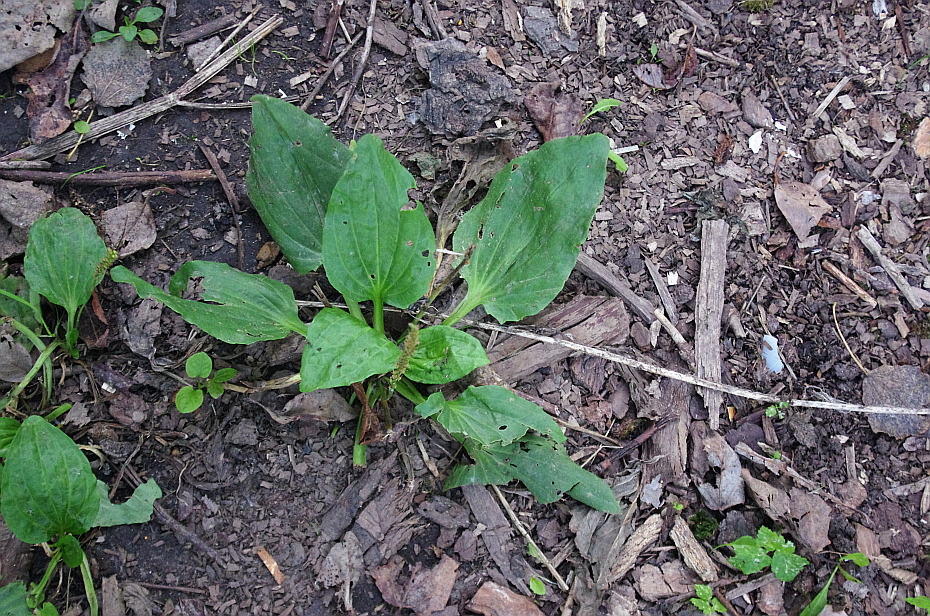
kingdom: Plantae
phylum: Tracheophyta
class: Magnoliopsida
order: Lamiales
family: Plantaginaceae
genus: Plantago
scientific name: Plantago major
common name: Common plantain
